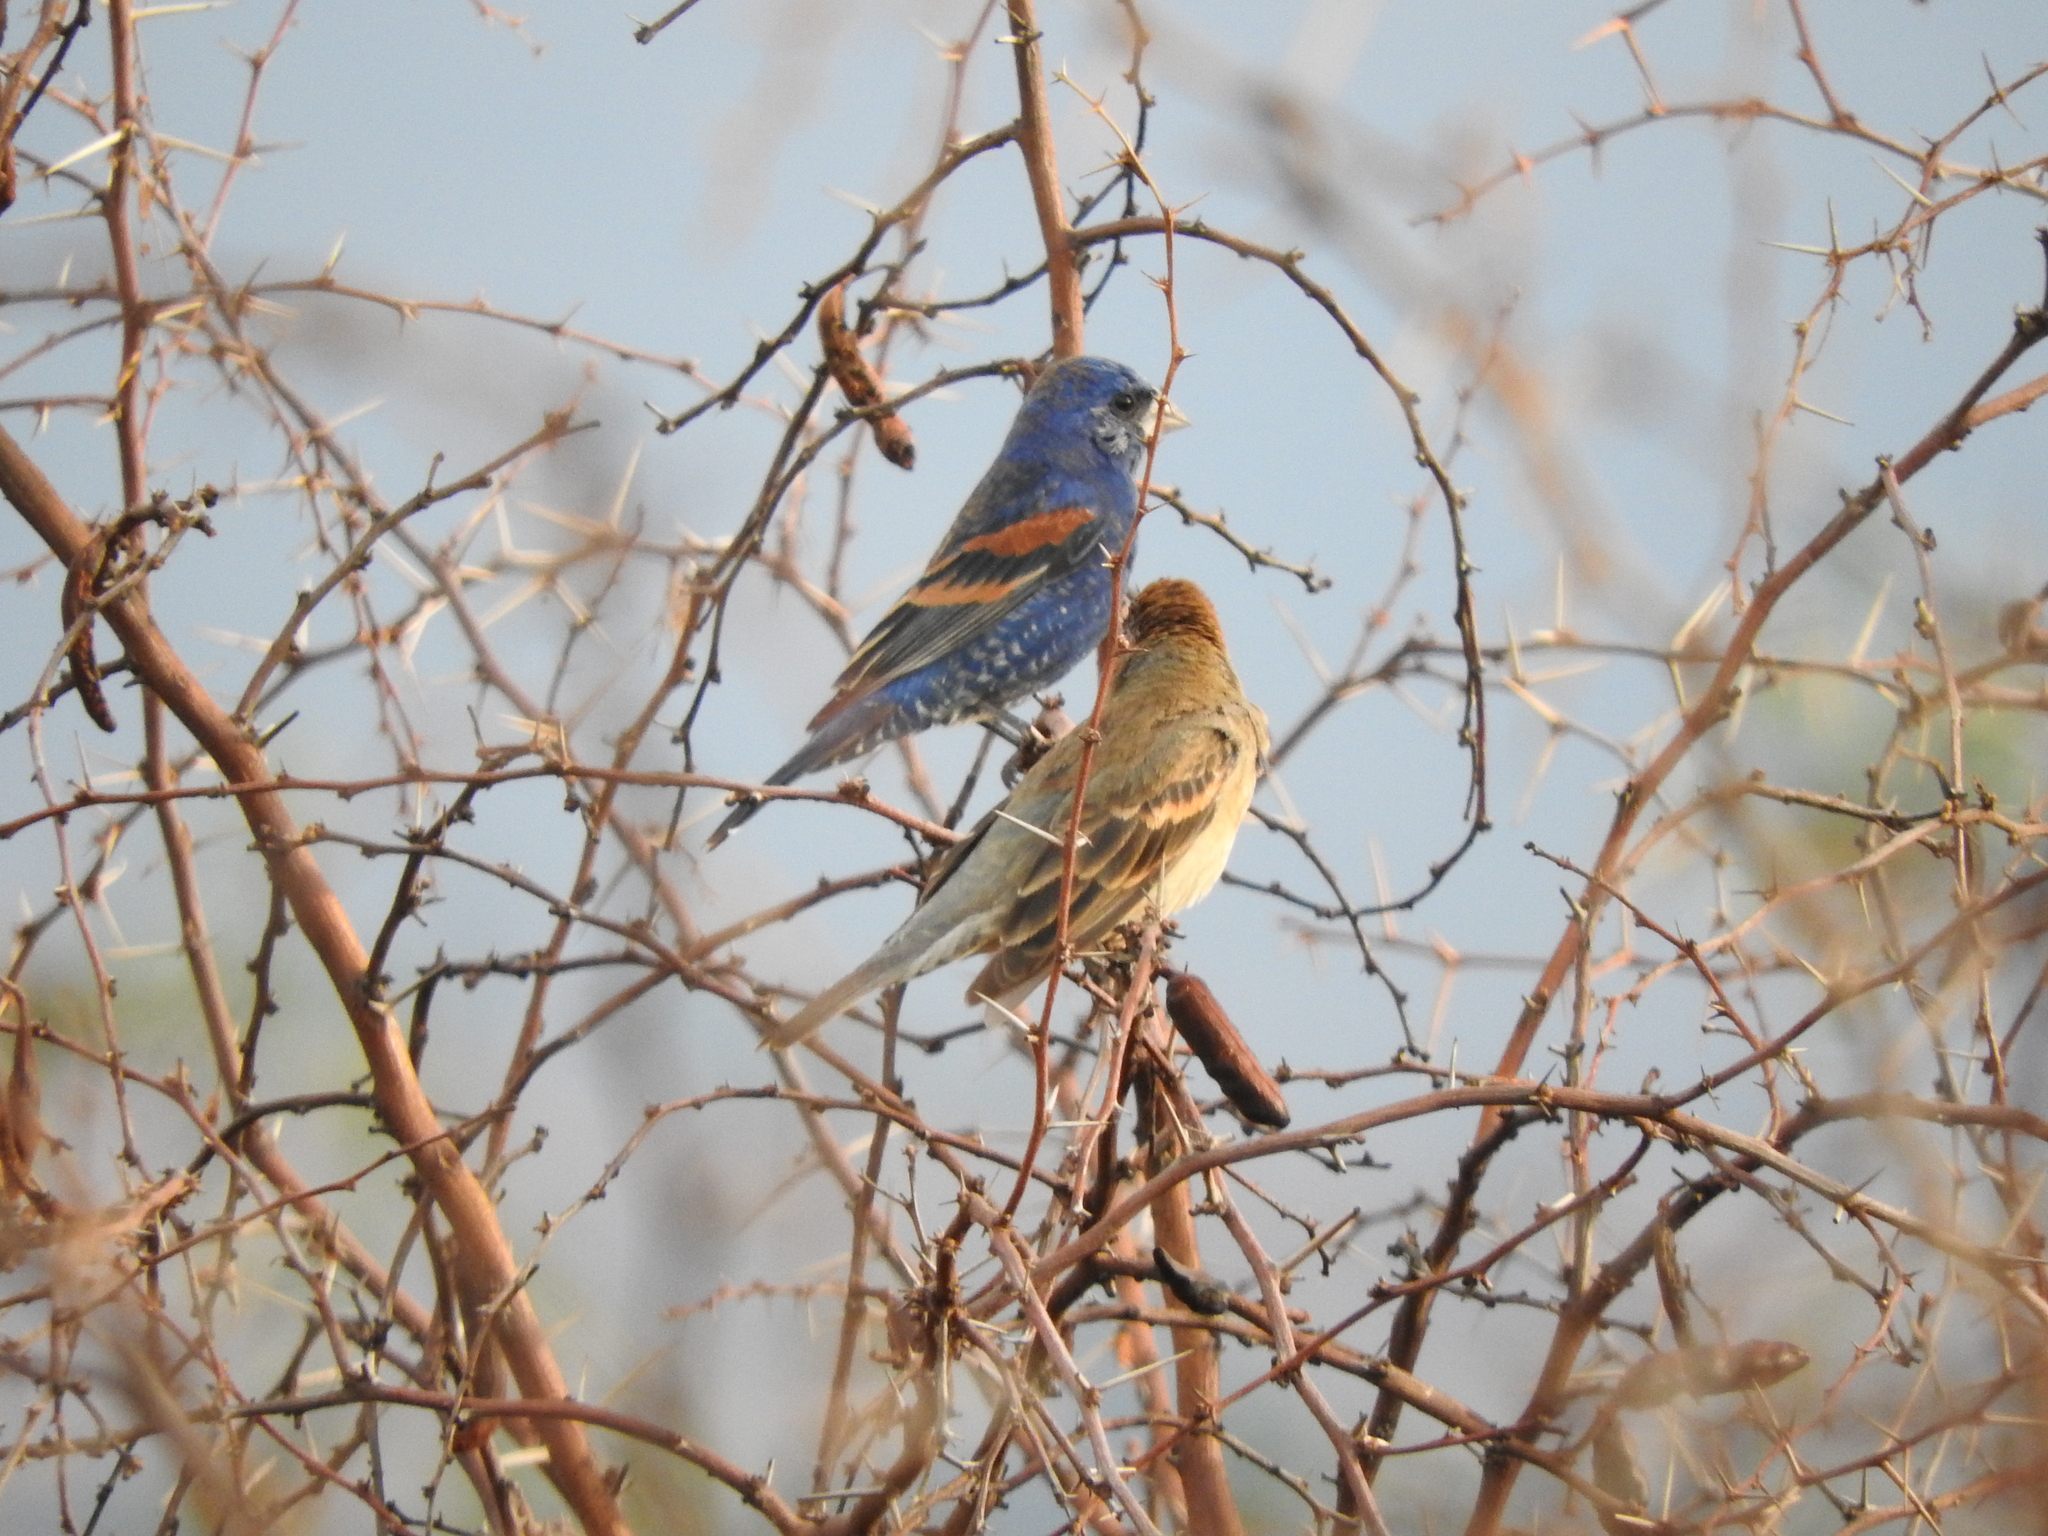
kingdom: Animalia
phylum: Chordata
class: Aves
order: Passeriformes
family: Cardinalidae
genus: Passerina
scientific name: Passerina caerulea
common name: Blue grosbeak
